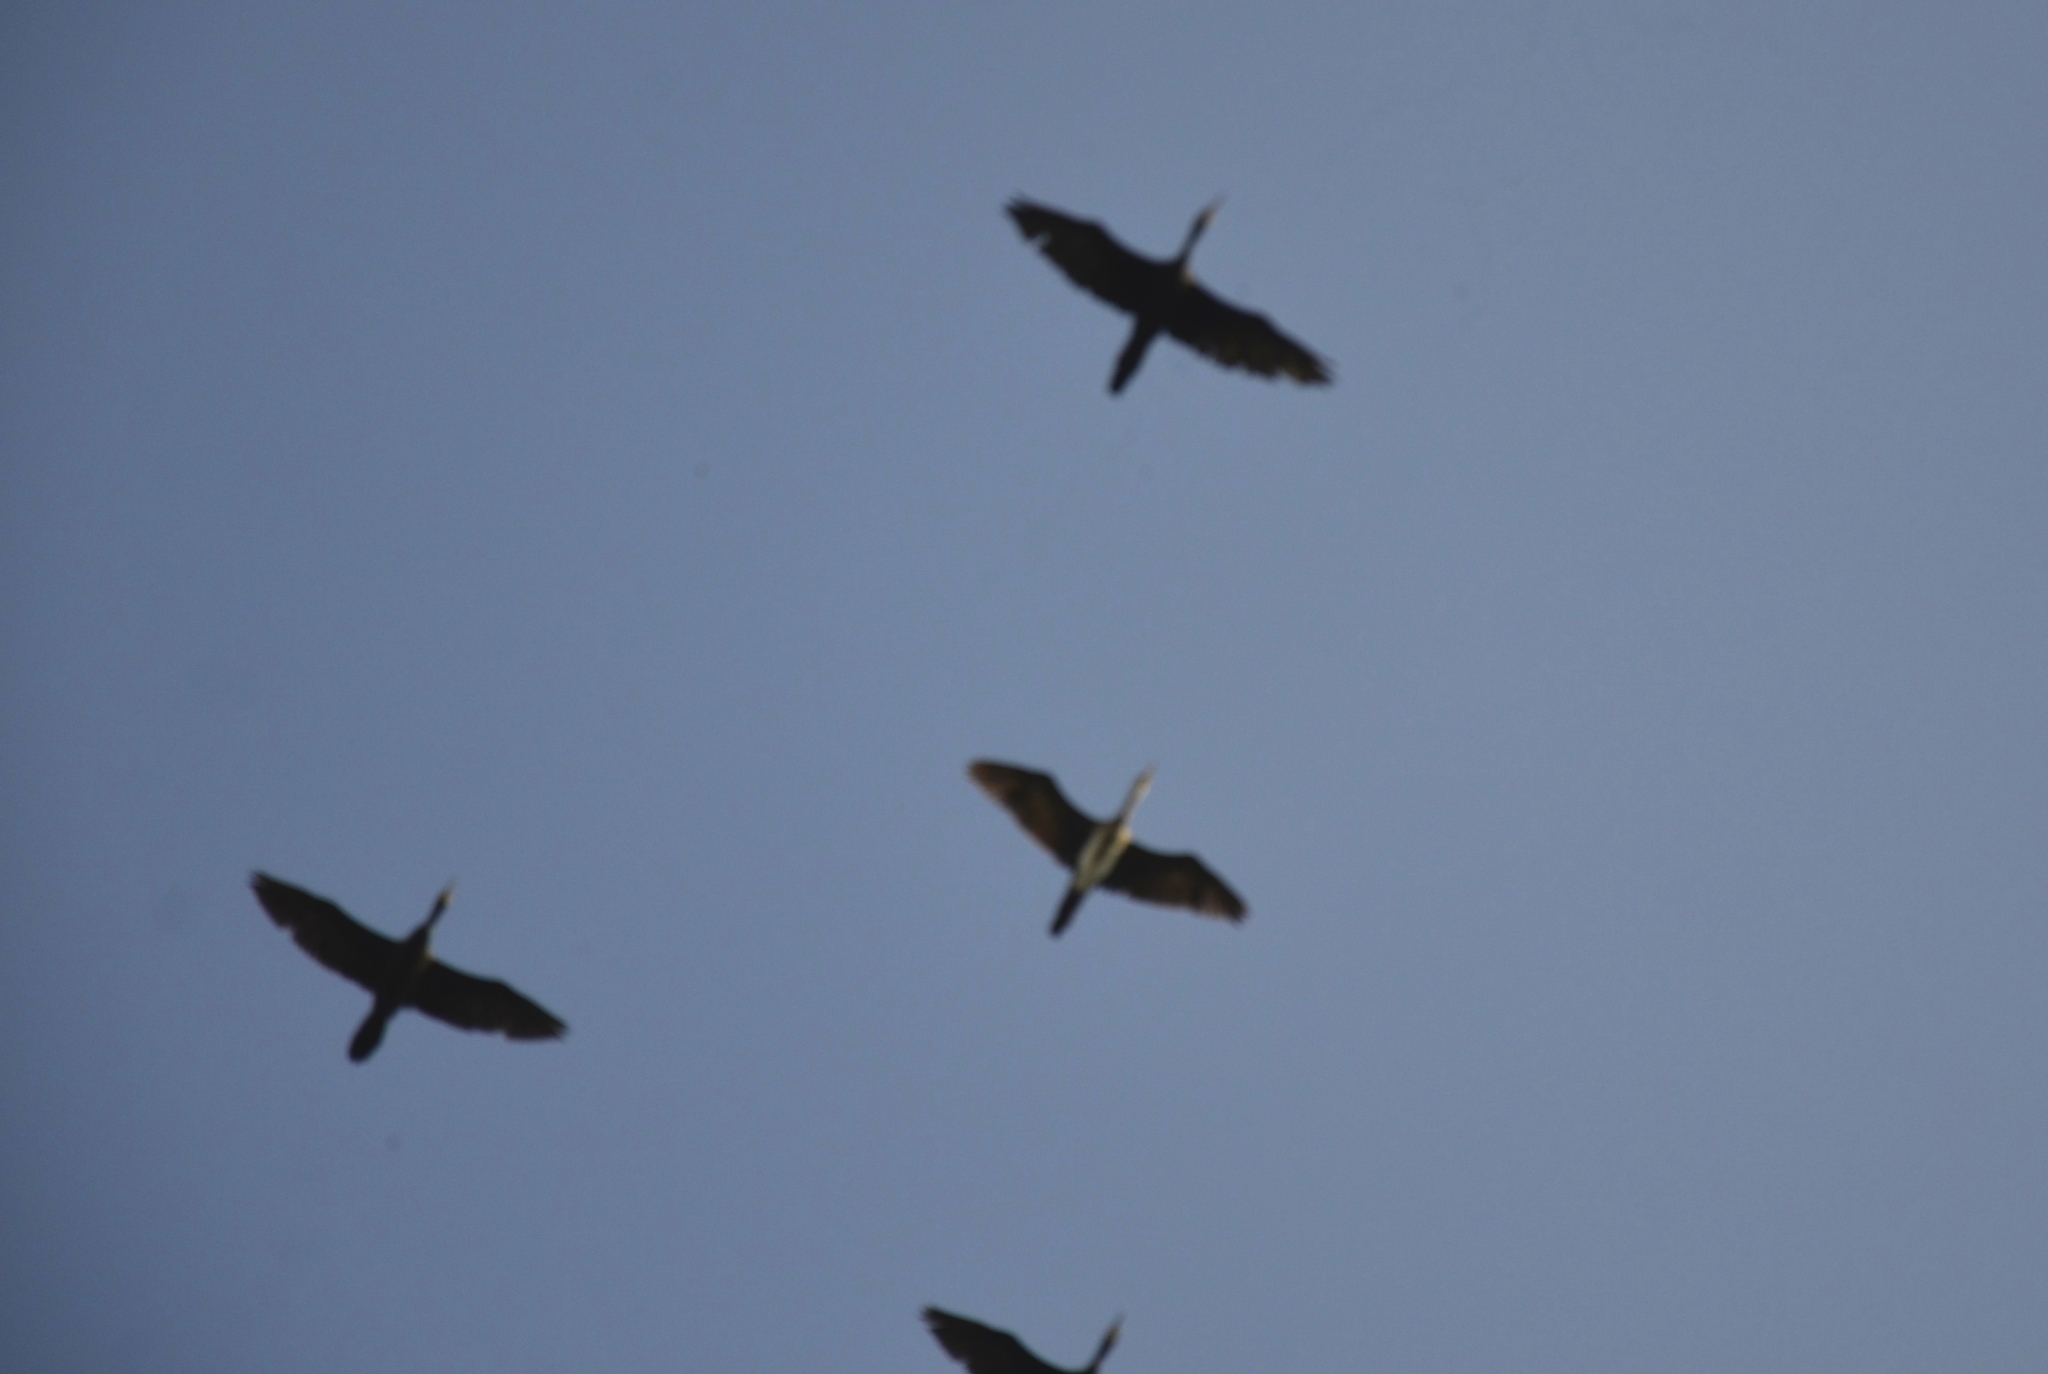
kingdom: Animalia
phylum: Chordata
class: Aves
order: Suliformes
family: Phalacrocoracidae
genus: Phalacrocorax
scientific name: Phalacrocorax fuscicollis
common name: Indian cormorant
